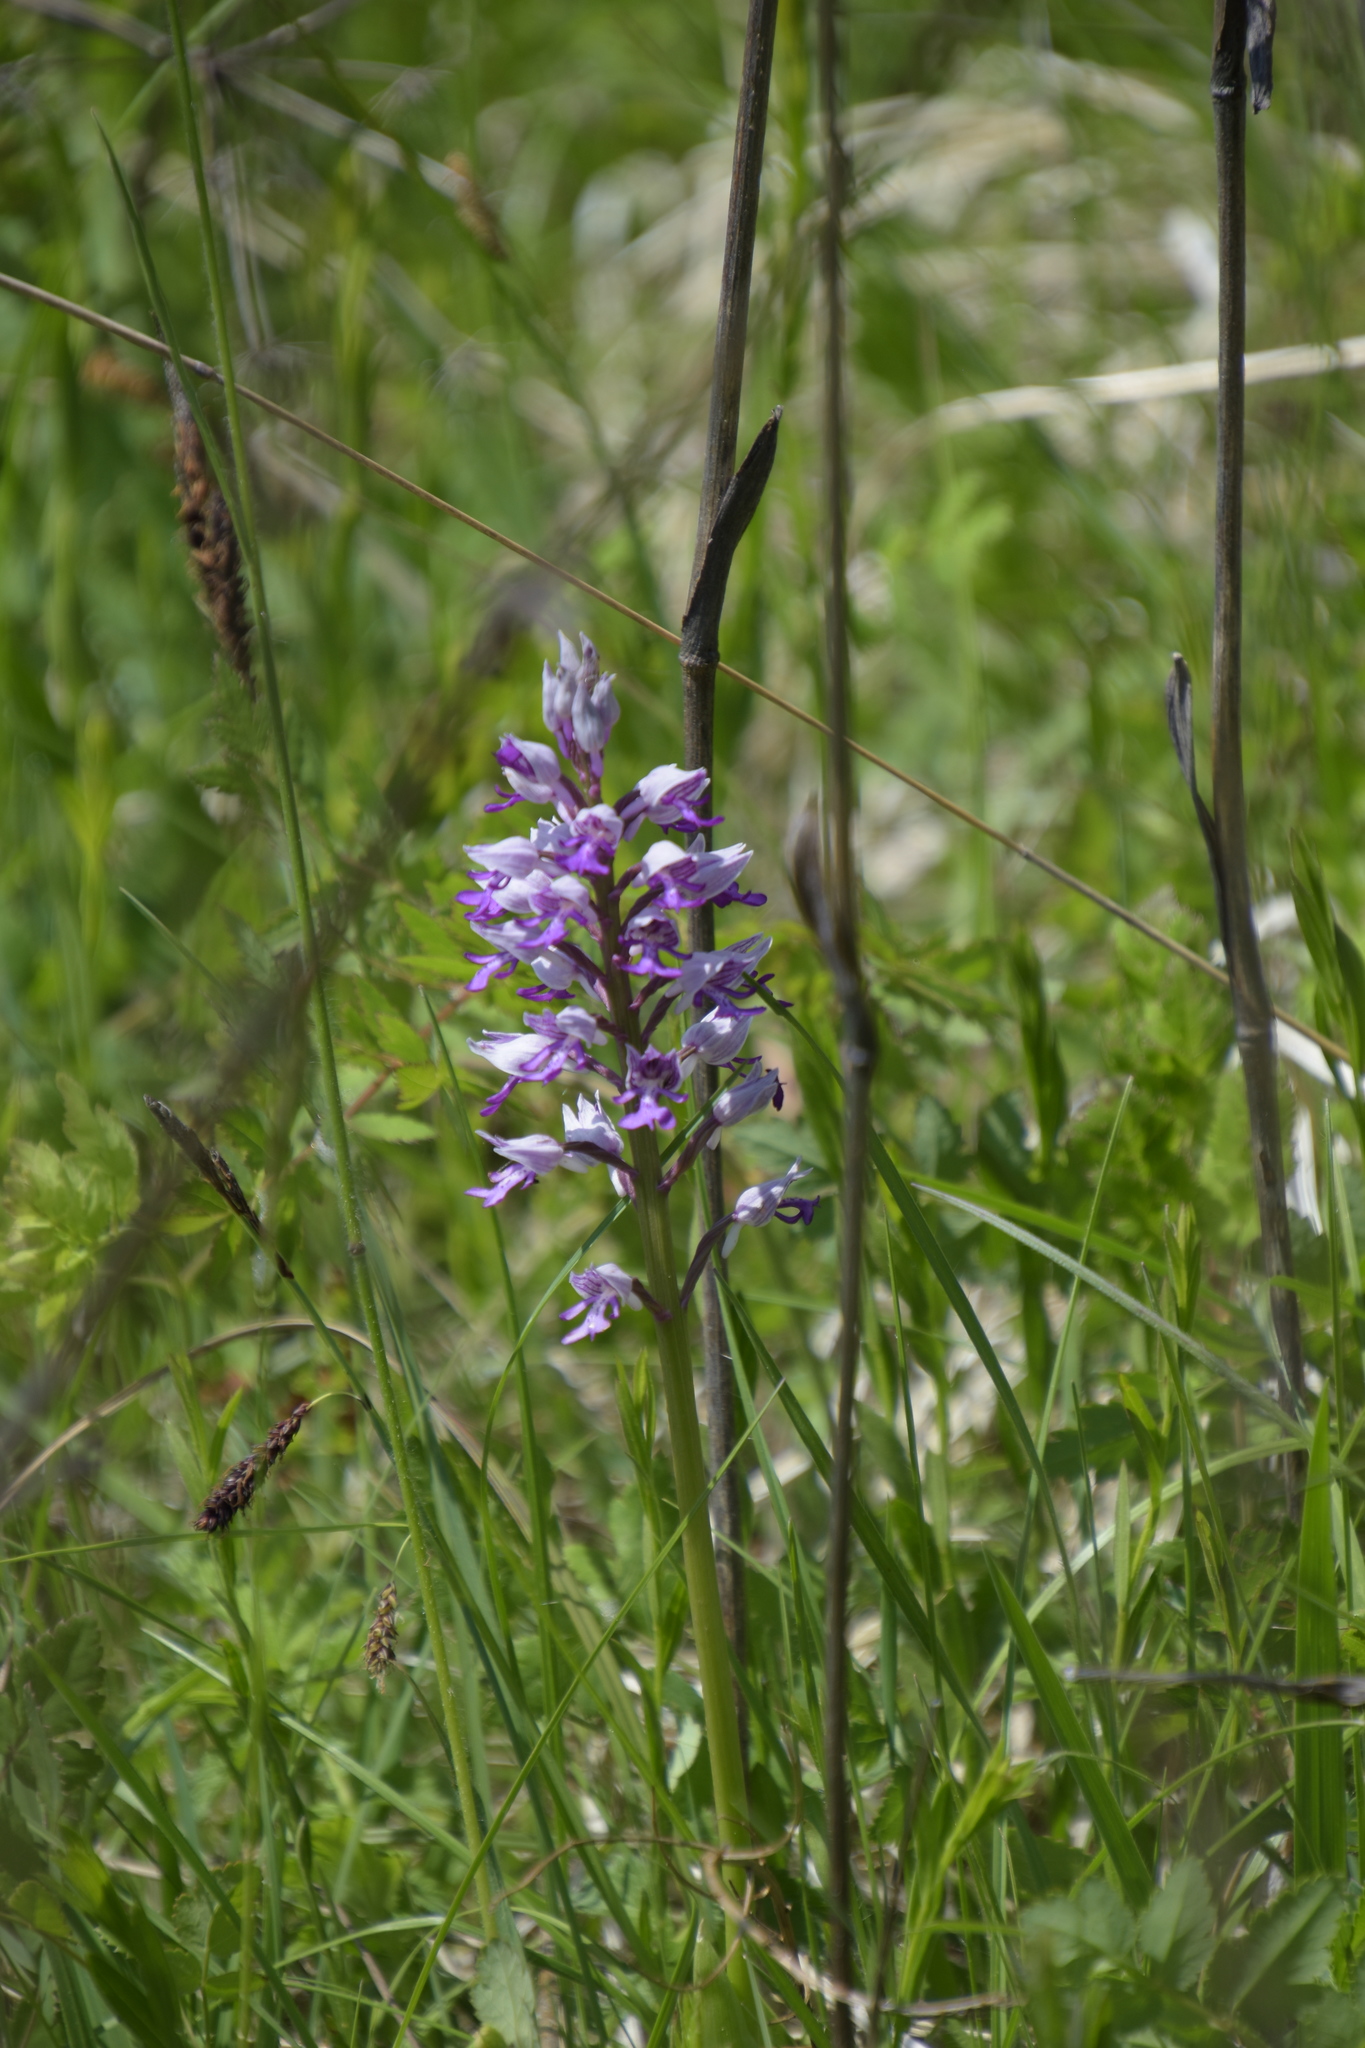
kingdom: Plantae
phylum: Tracheophyta
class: Liliopsida
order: Asparagales
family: Orchidaceae
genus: Orchis
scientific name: Orchis militaris
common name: Military orchid
